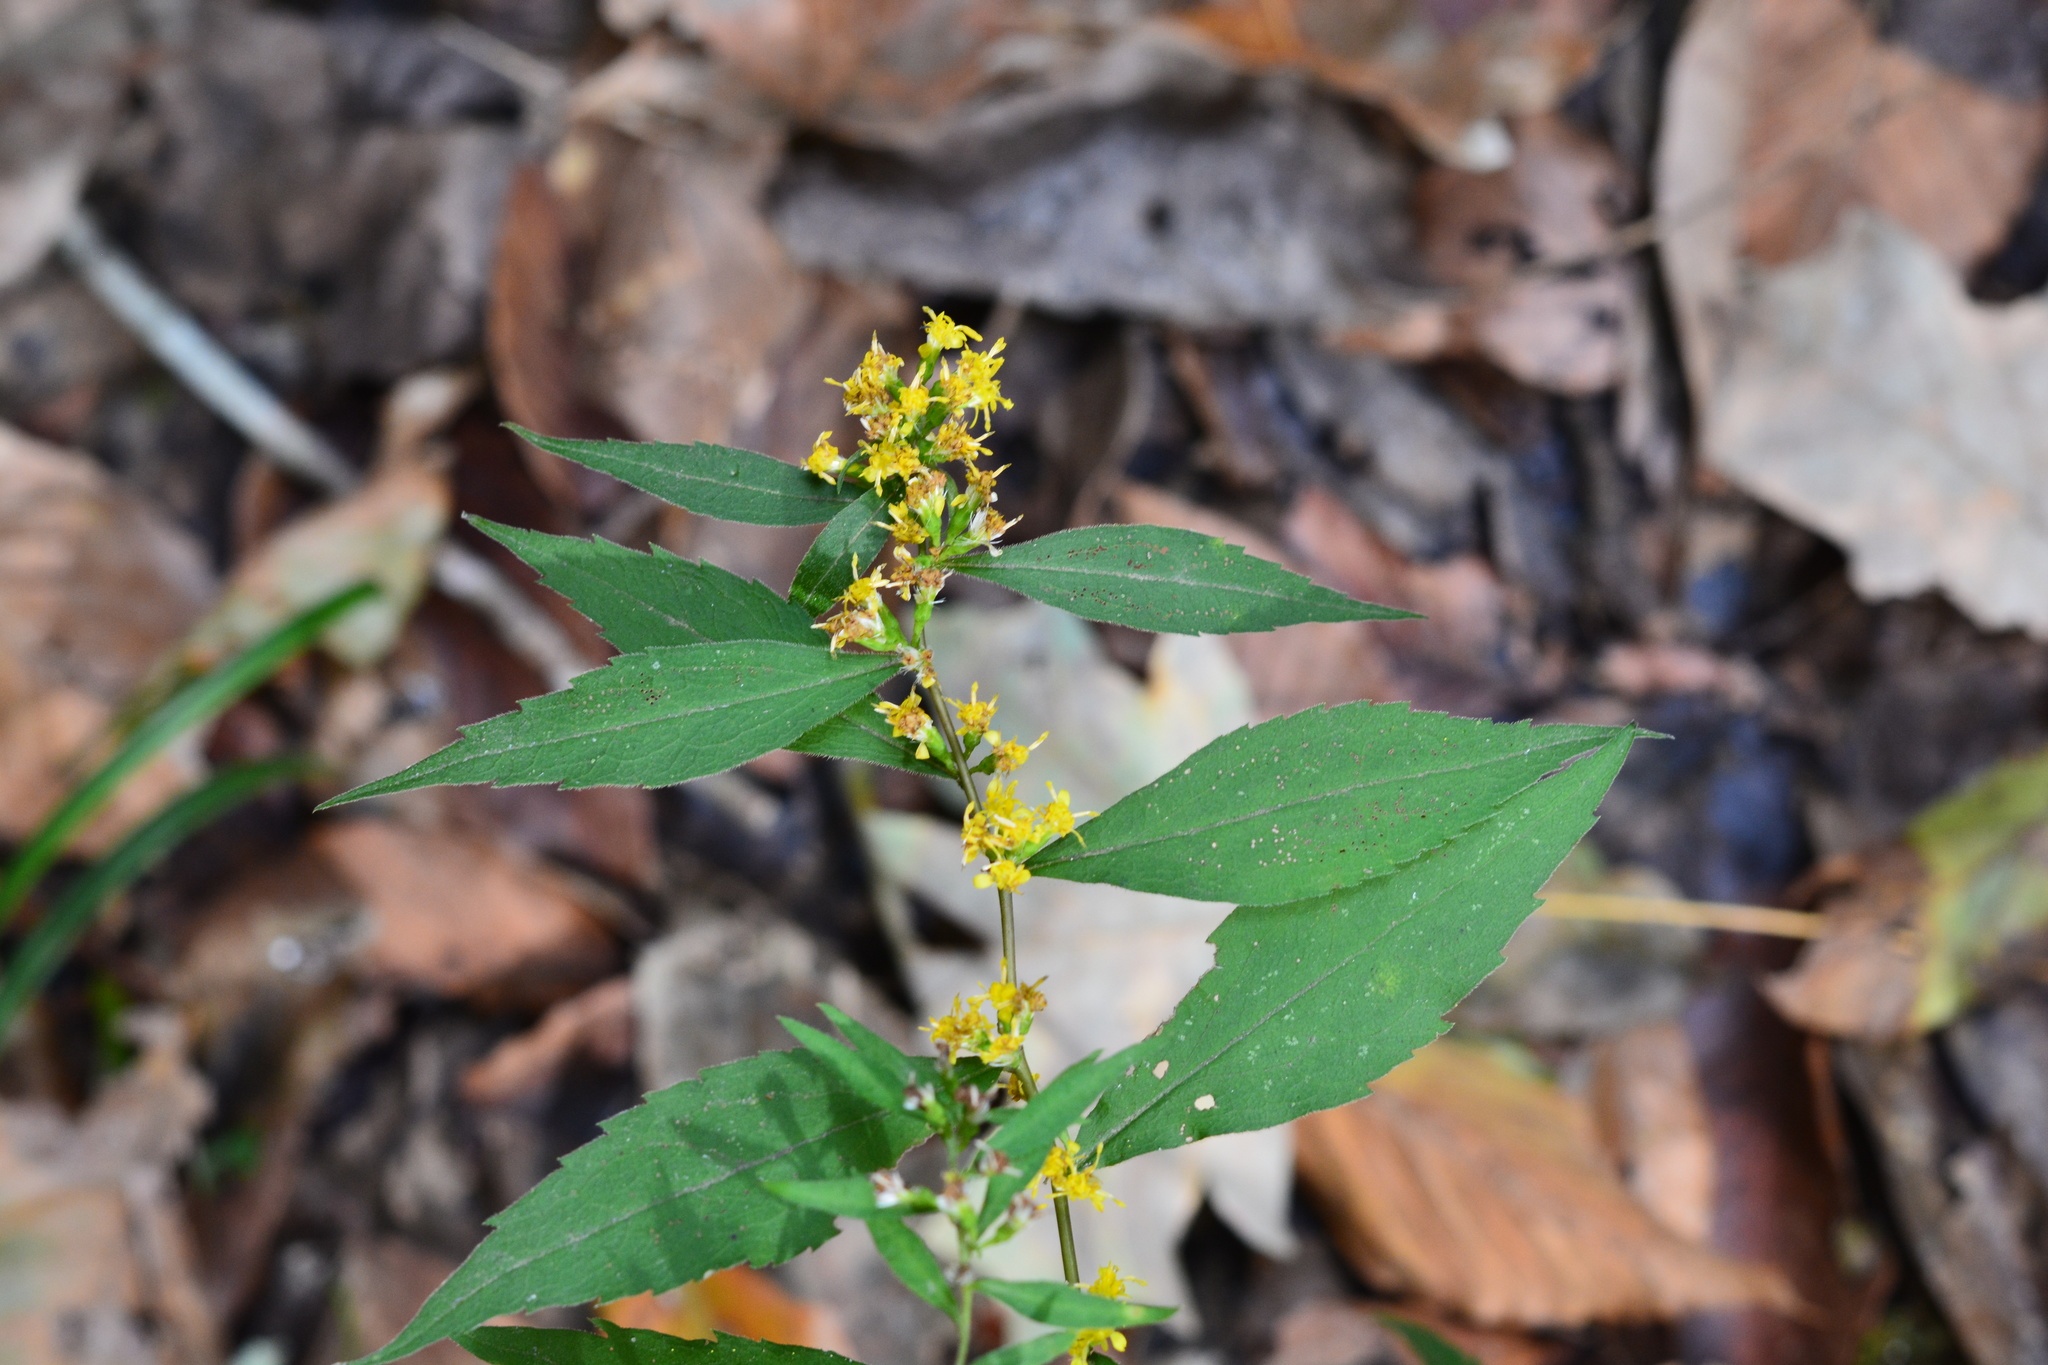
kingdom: Plantae
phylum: Tracheophyta
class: Magnoliopsida
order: Asterales
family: Asteraceae
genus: Solidago
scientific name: Solidago caesia
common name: Woodland goldenrod
